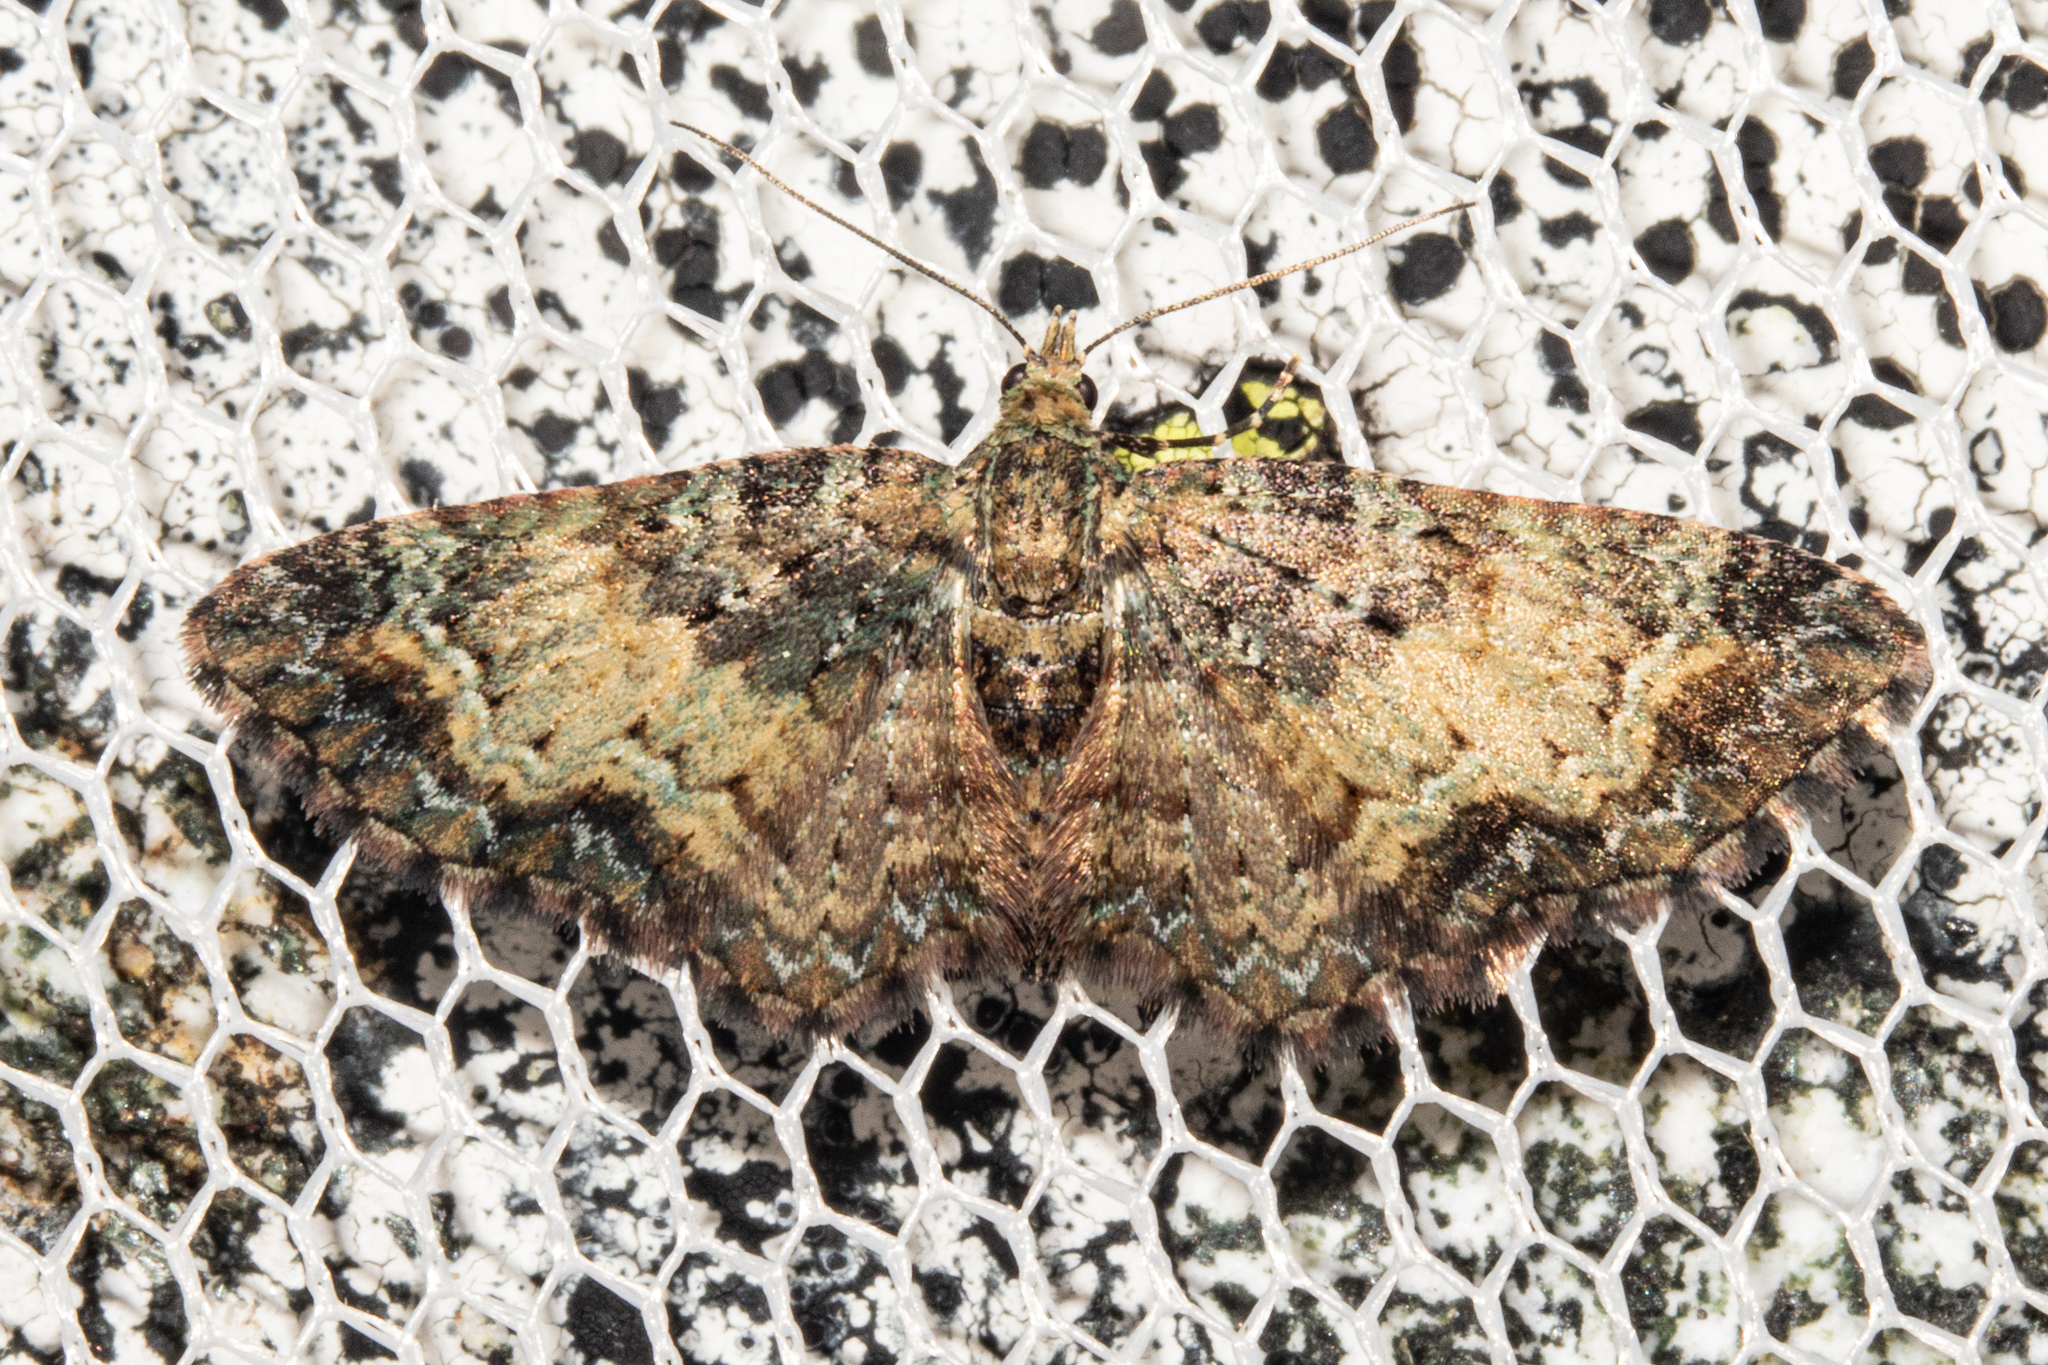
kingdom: Animalia
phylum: Arthropoda
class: Insecta
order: Lepidoptera
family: Geometridae
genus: Pasiphila
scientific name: Pasiphila lunata
